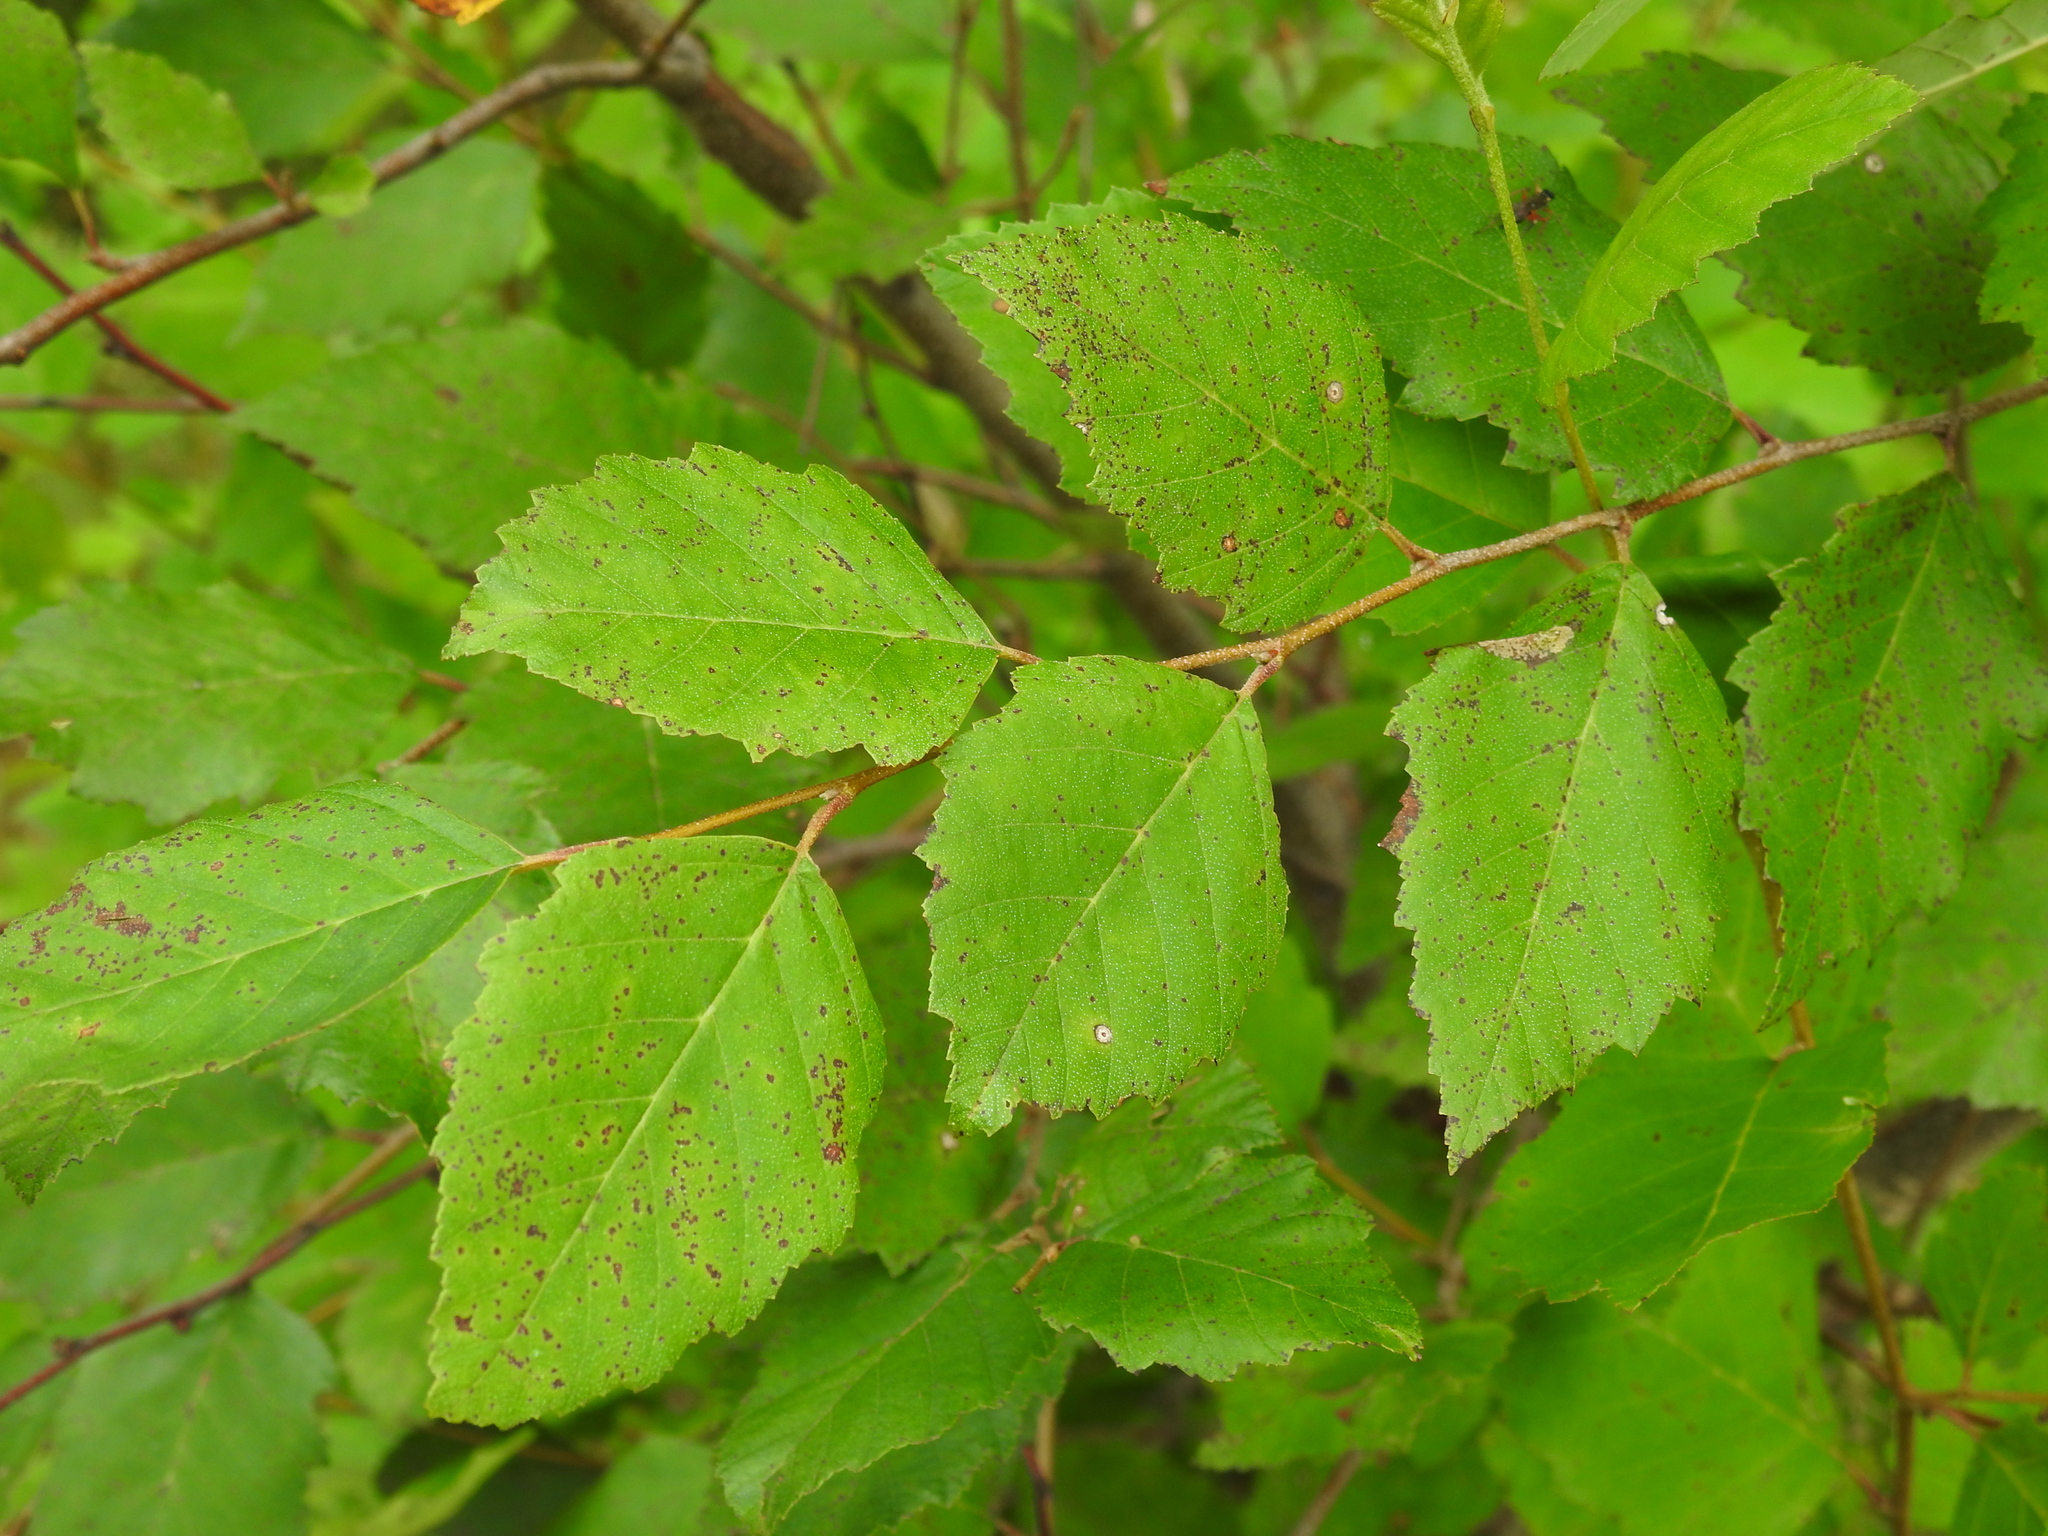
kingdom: Plantae
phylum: Tracheophyta
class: Magnoliopsida
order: Fagales
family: Betulaceae
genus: Betula
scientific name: Betula nigra
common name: Black birch
